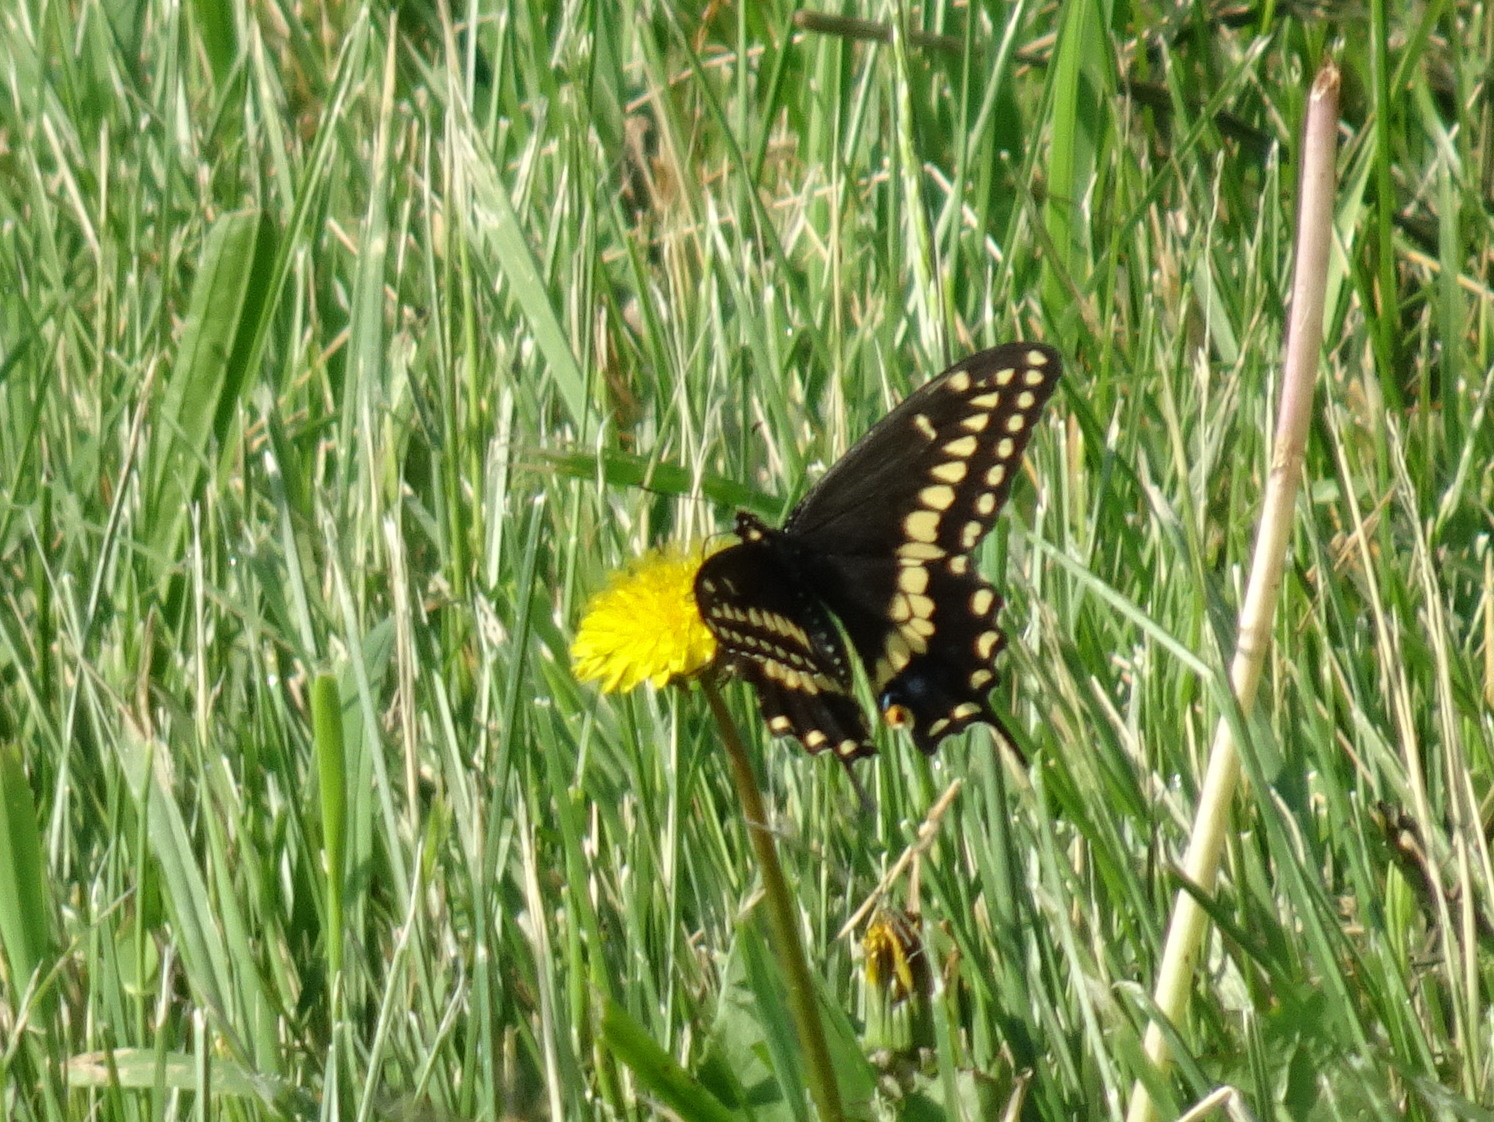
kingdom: Animalia
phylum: Arthropoda
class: Insecta
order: Lepidoptera
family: Papilionidae
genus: Papilio
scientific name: Papilio polyxenes
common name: Black swallowtail
